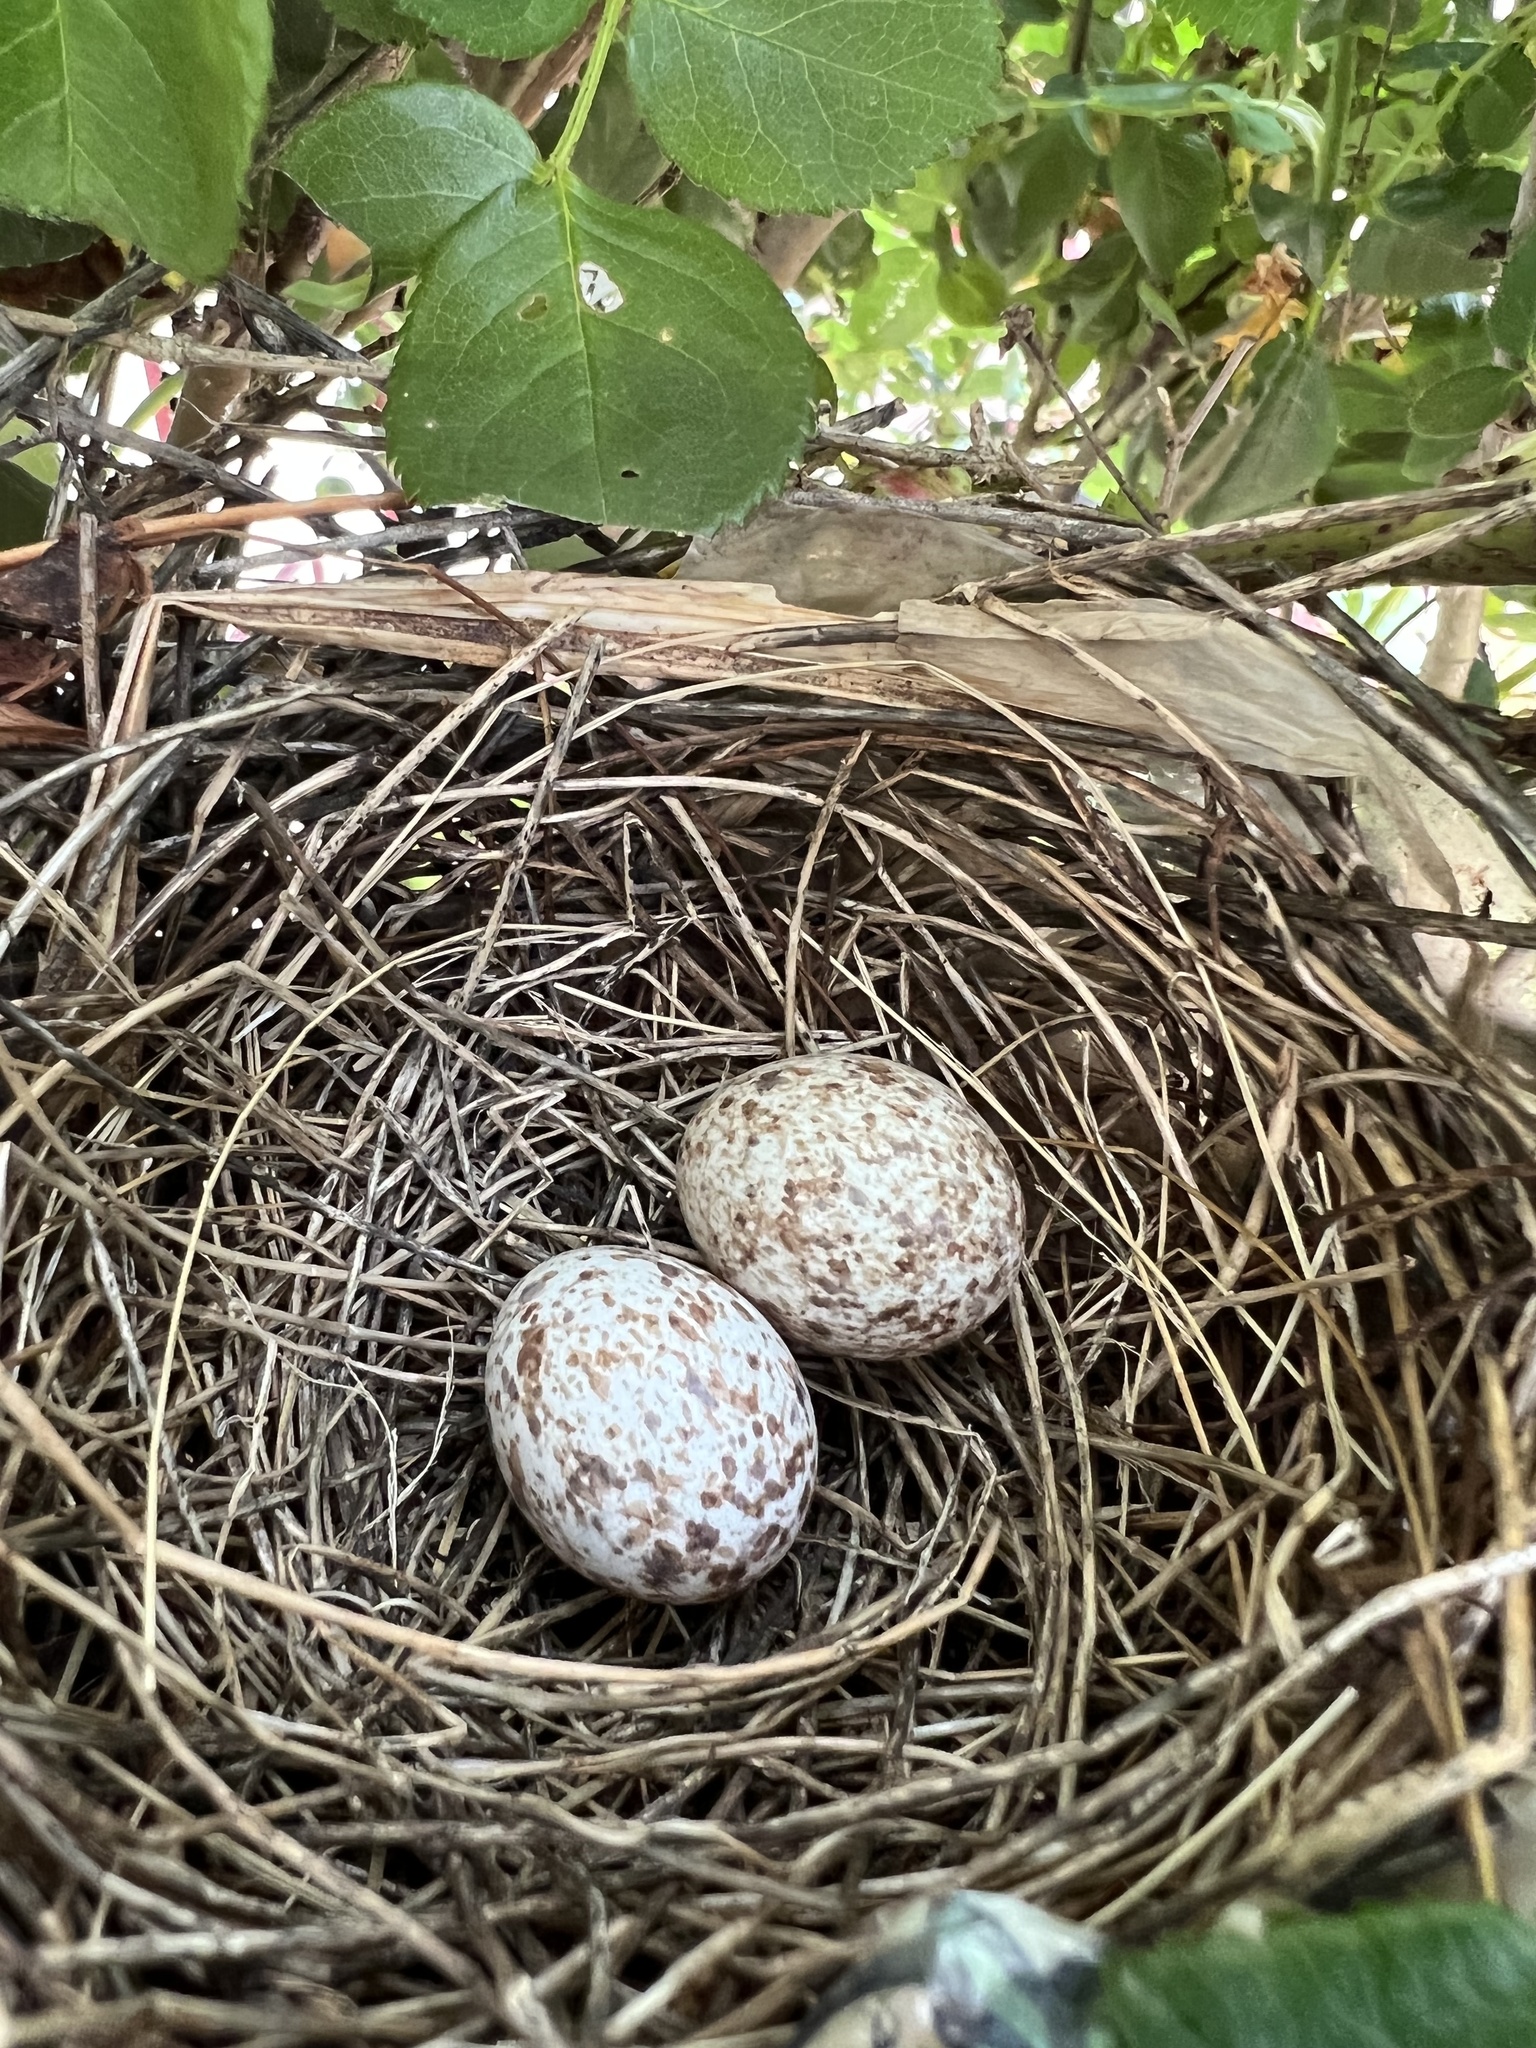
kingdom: Animalia
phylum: Chordata
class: Aves
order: Passeriformes
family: Cardinalidae
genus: Cardinalis
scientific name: Cardinalis cardinalis
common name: Northern cardinal
